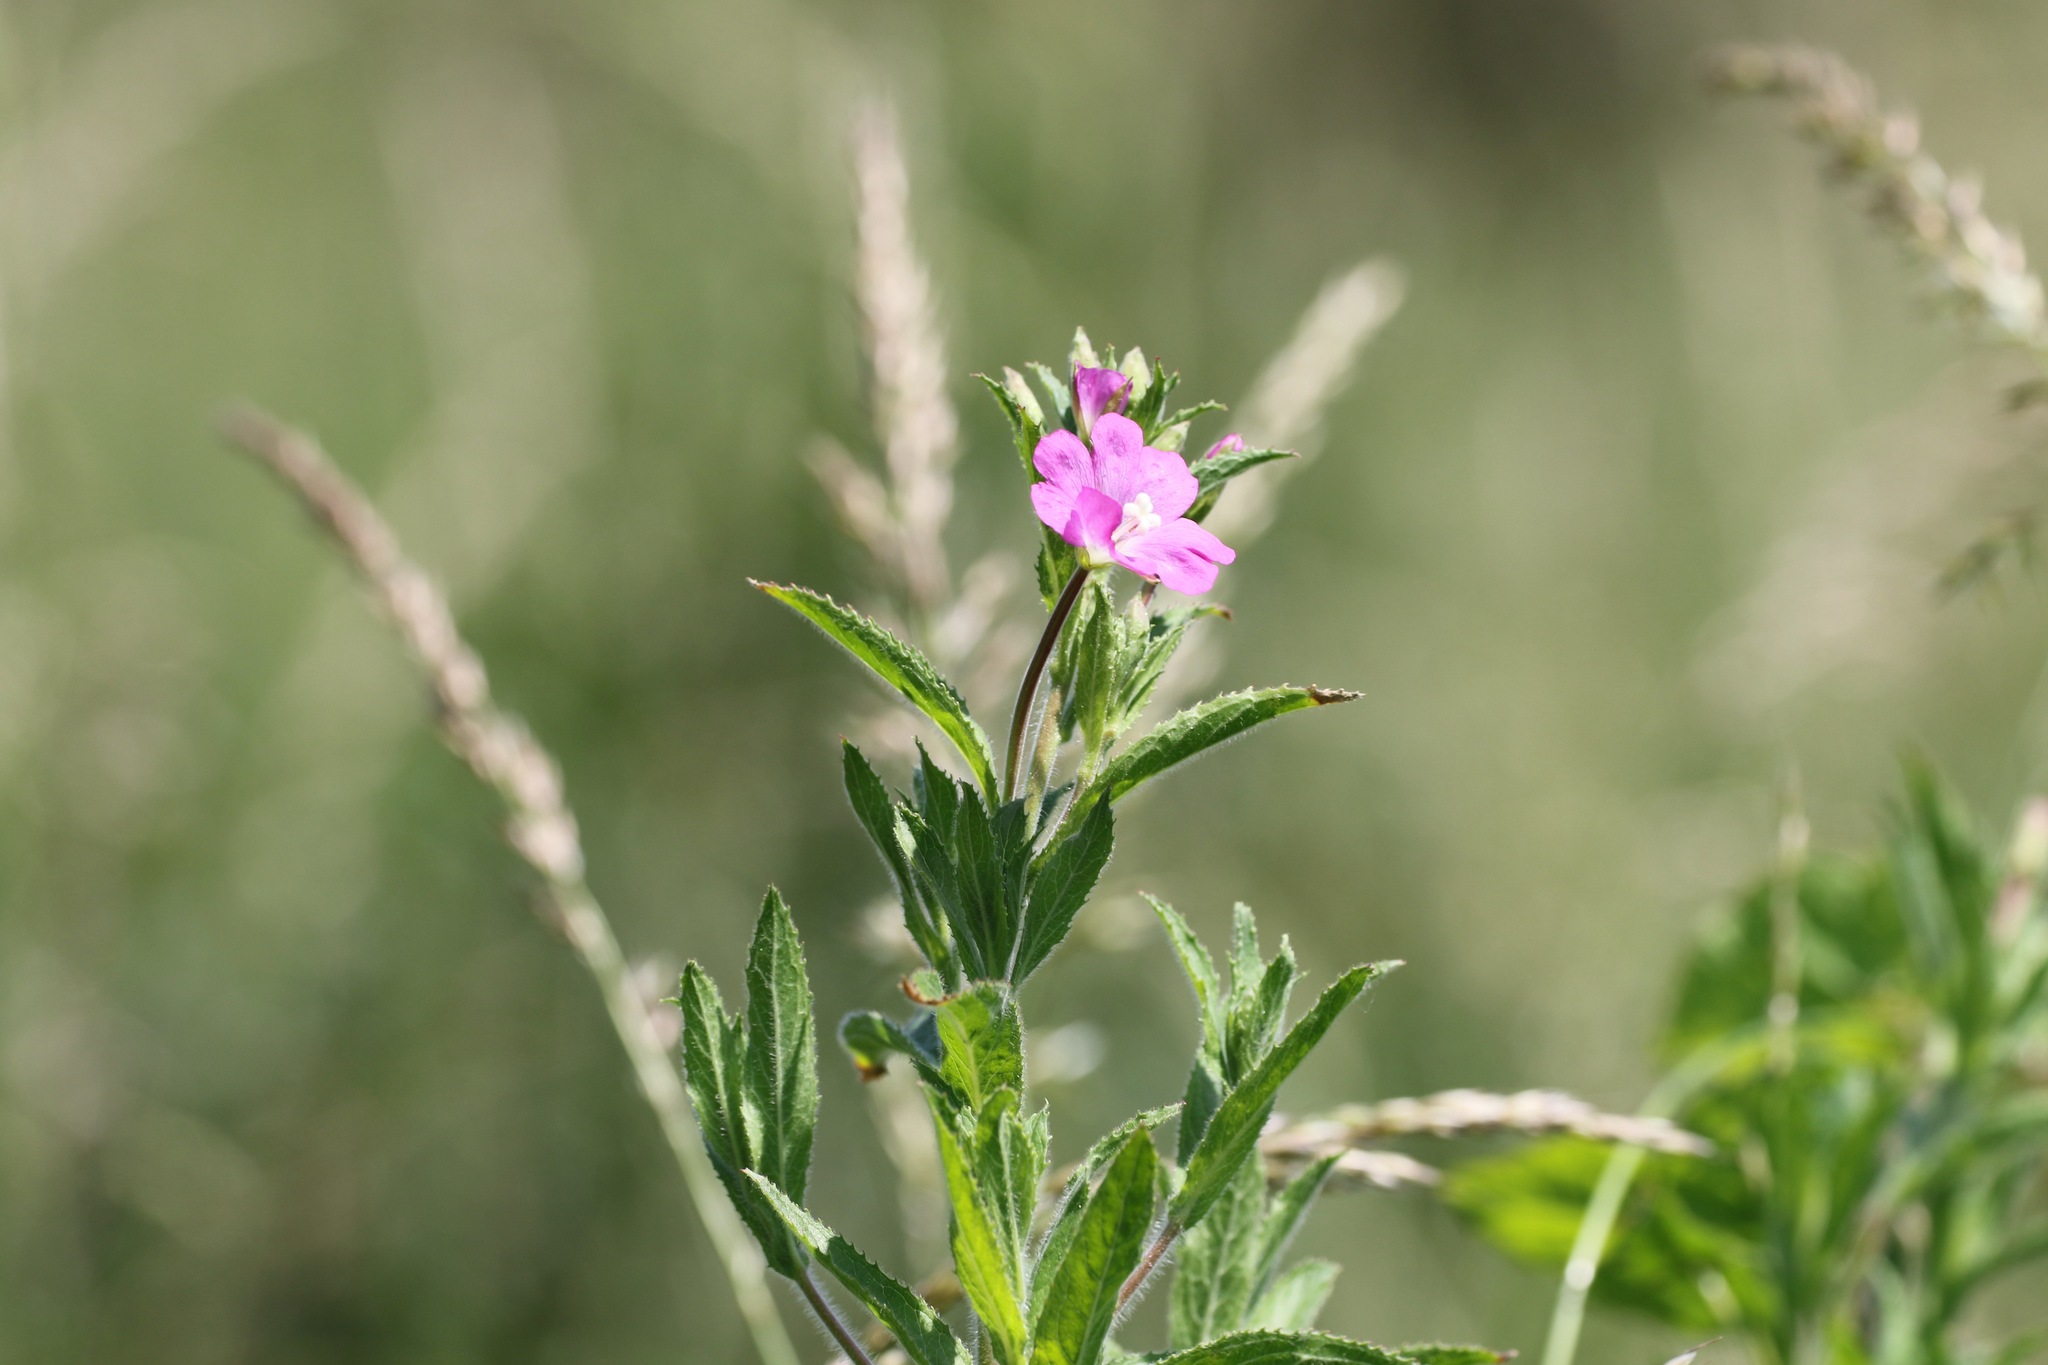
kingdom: Plantae
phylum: Tracheophyta
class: Magnoliopsida
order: Myrtales
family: Onagraceae
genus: Epilobium
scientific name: Epilobium hirsutum
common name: Great willowherb
